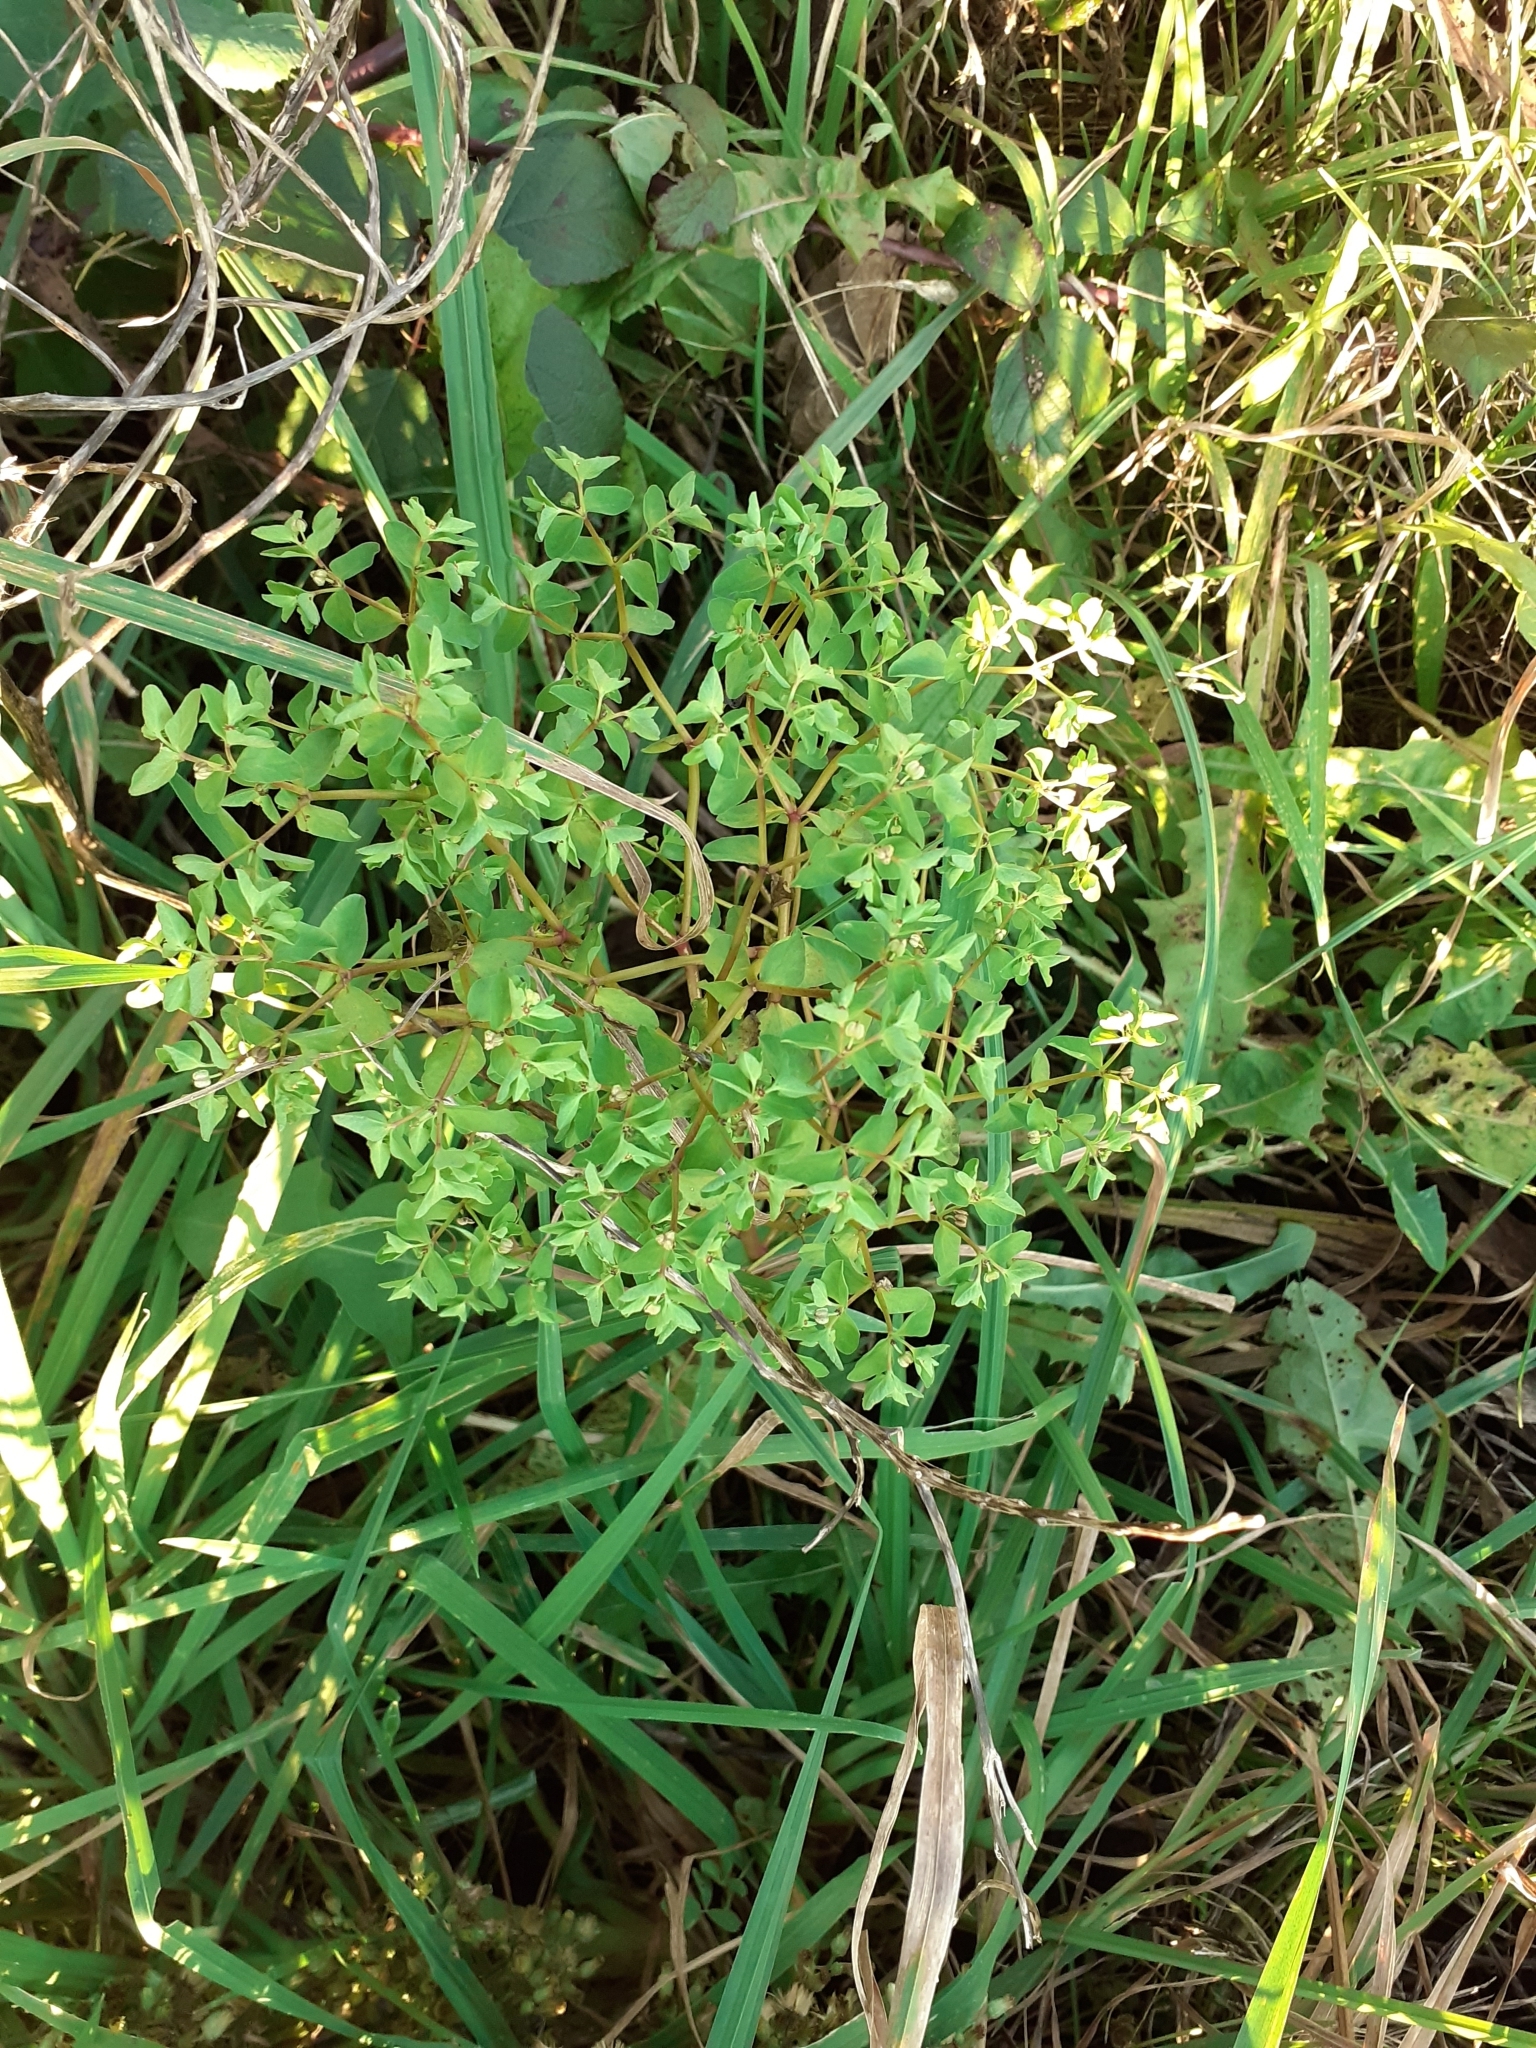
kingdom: Plantae
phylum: Tracheophyta
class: Magnoliopsida
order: Malpighiales
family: Euphorbiaceae
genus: Euphorbia
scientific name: Euphorbia peplus
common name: Petty spurge
